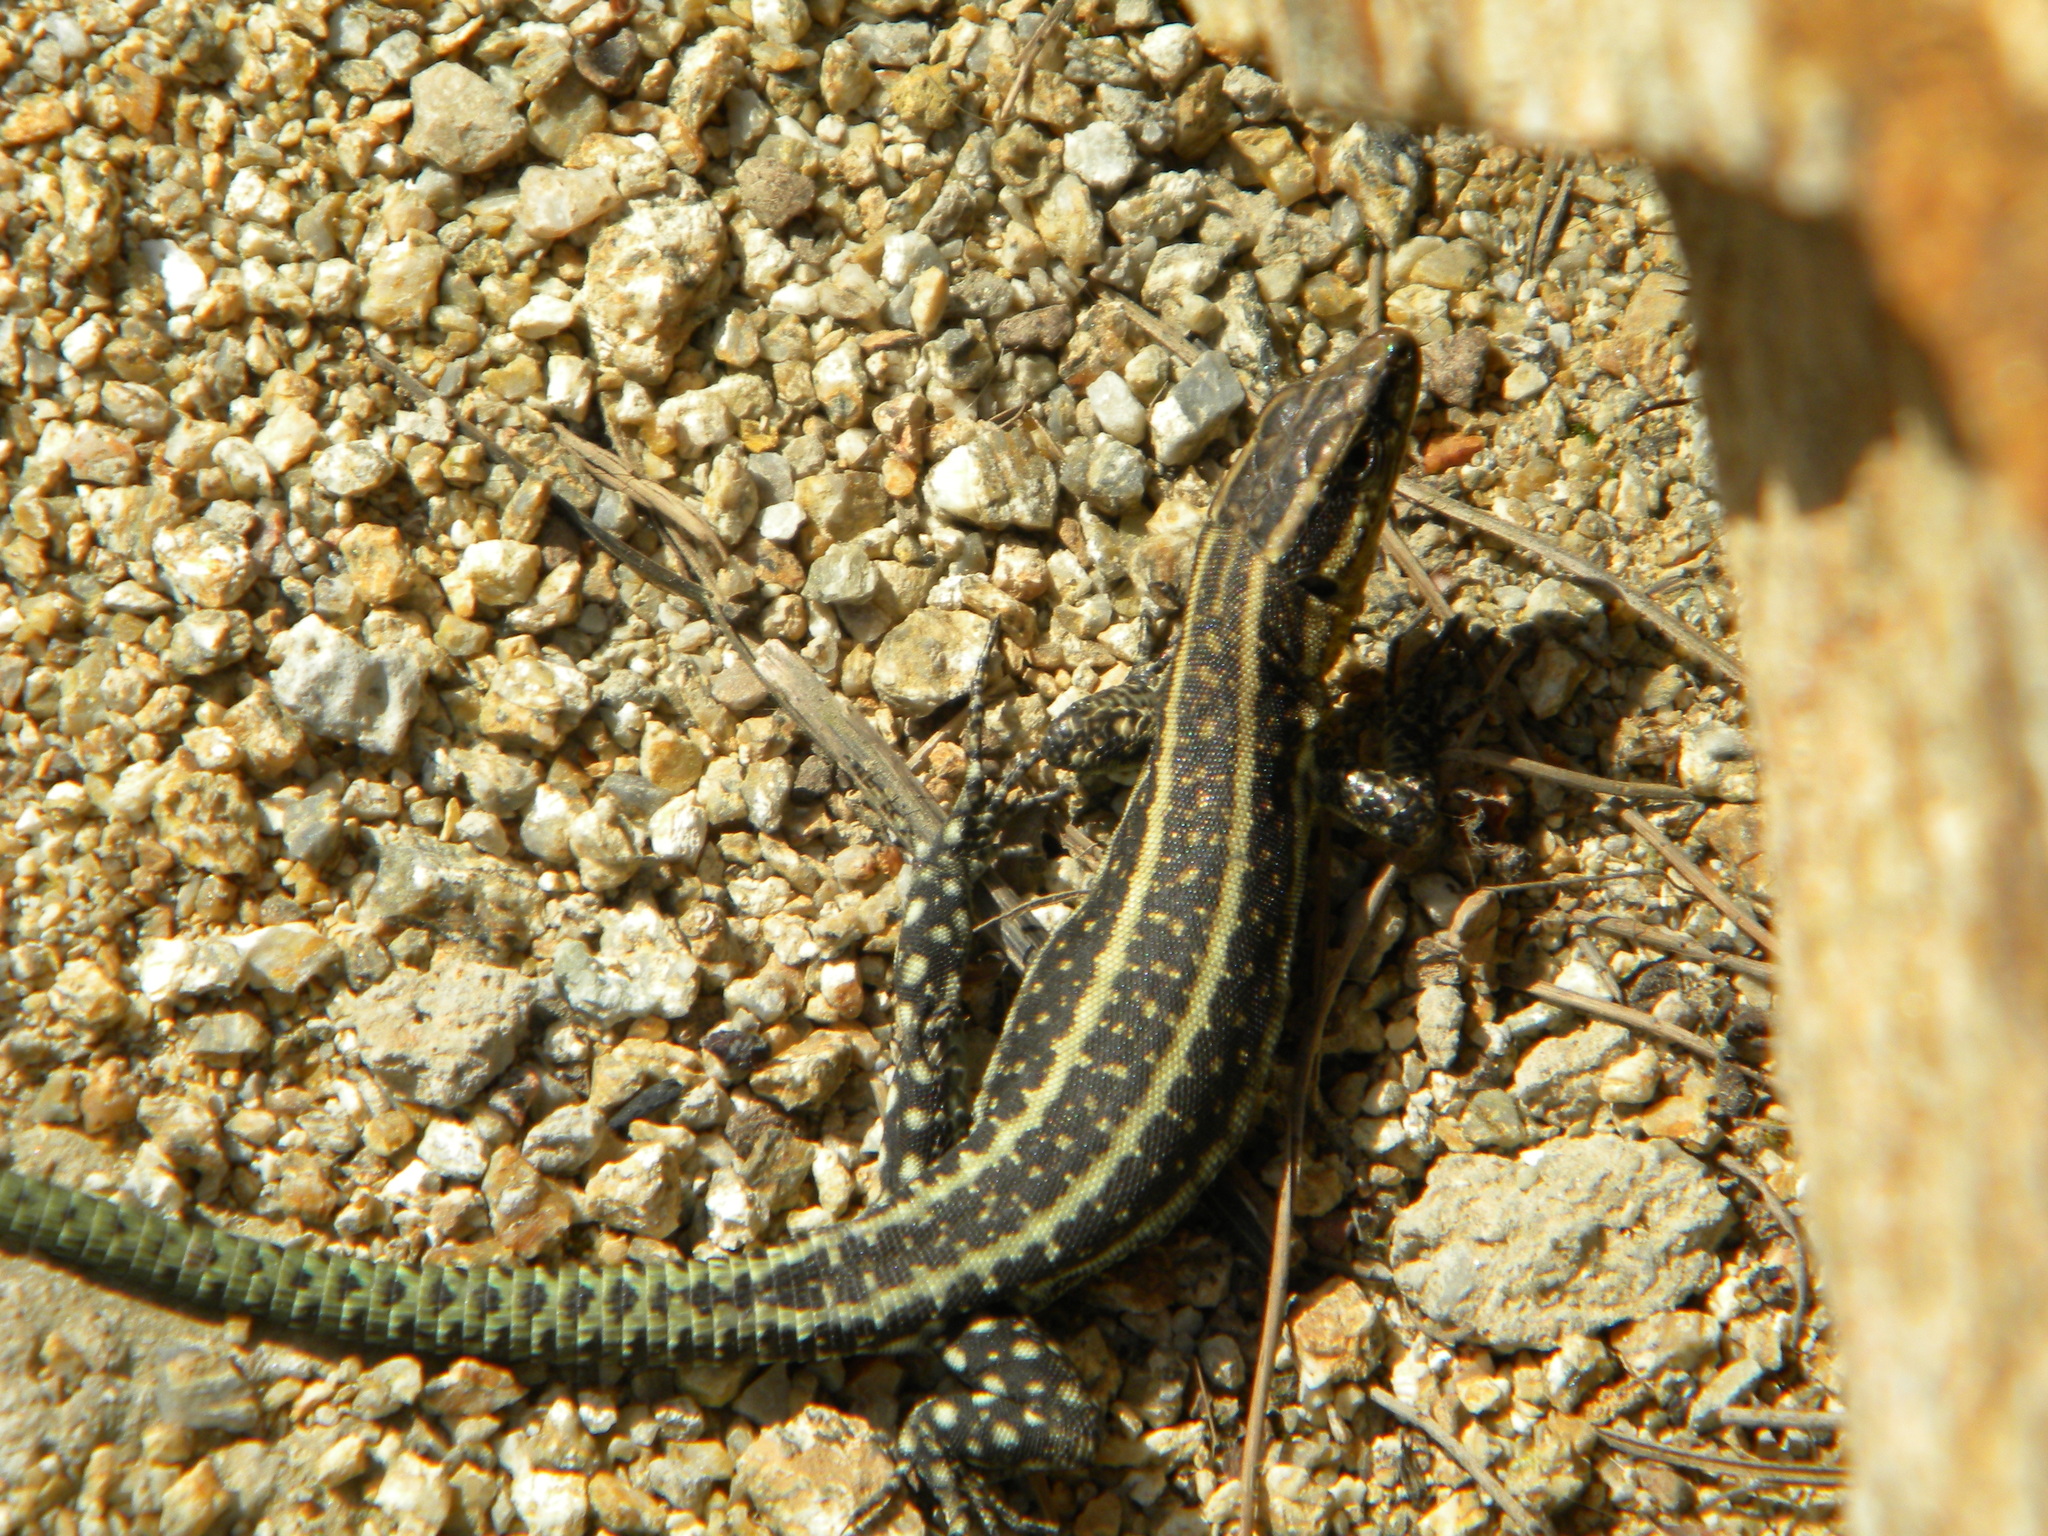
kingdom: Animalia
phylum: Chordata
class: Squamata
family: Lacertidae
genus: Anatololacerta
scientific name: Anatololacerta anatolica
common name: Anatolian rock lizard
